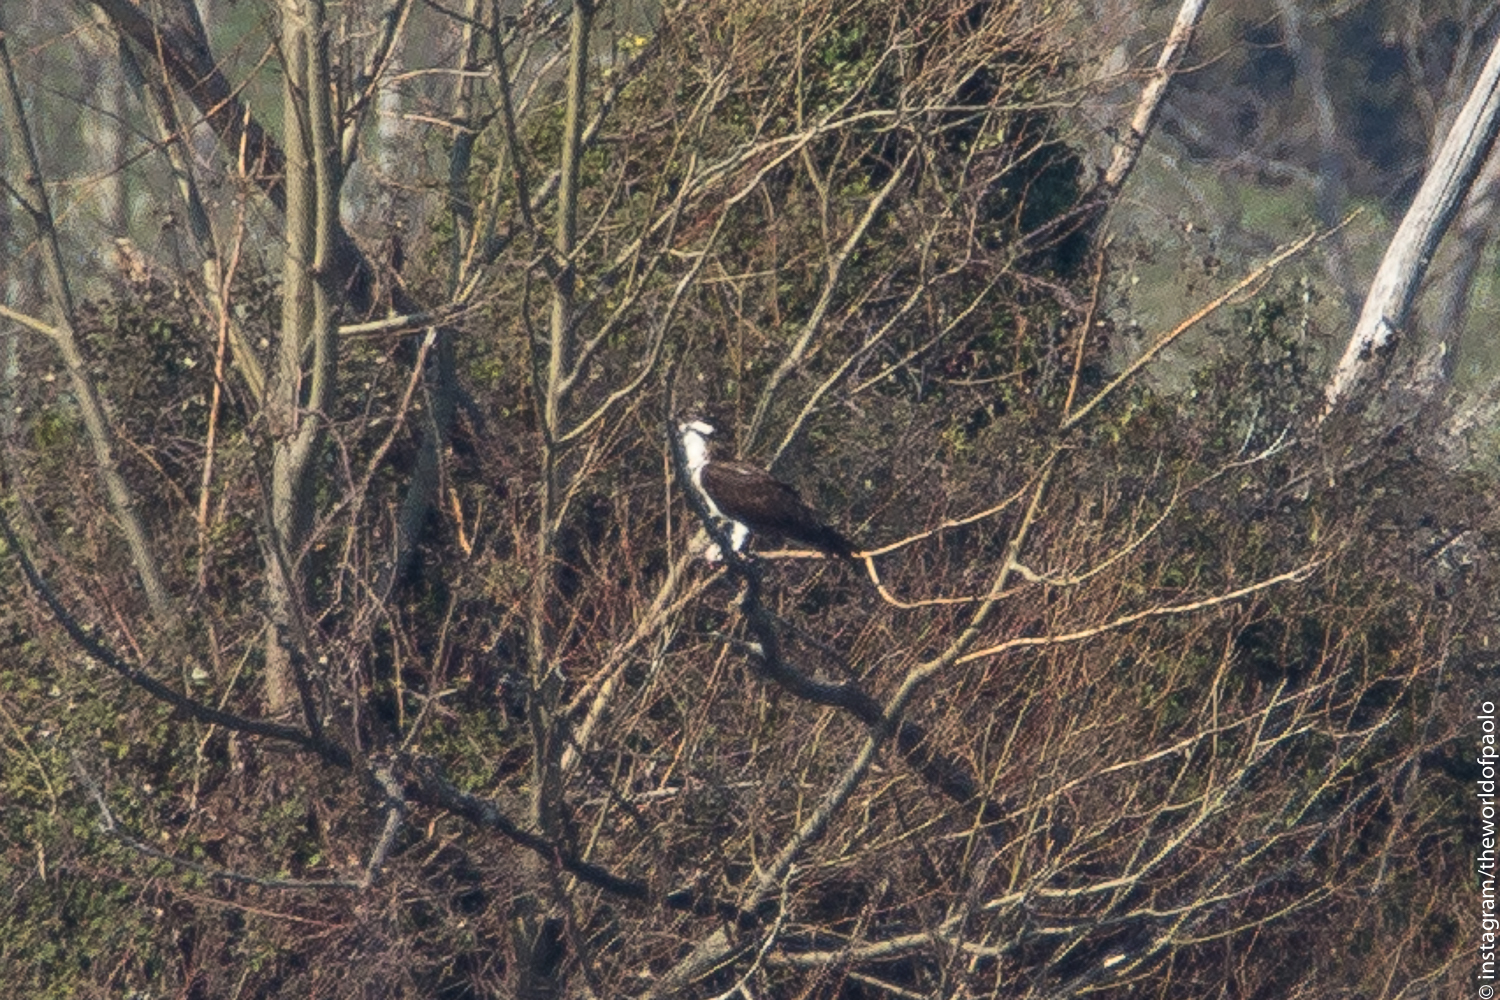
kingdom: Animalia
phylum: Chordata
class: Aves
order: Accipitriformes
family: Pandionidae
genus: Pandion
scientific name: Pandion haliaetus
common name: Osprey
